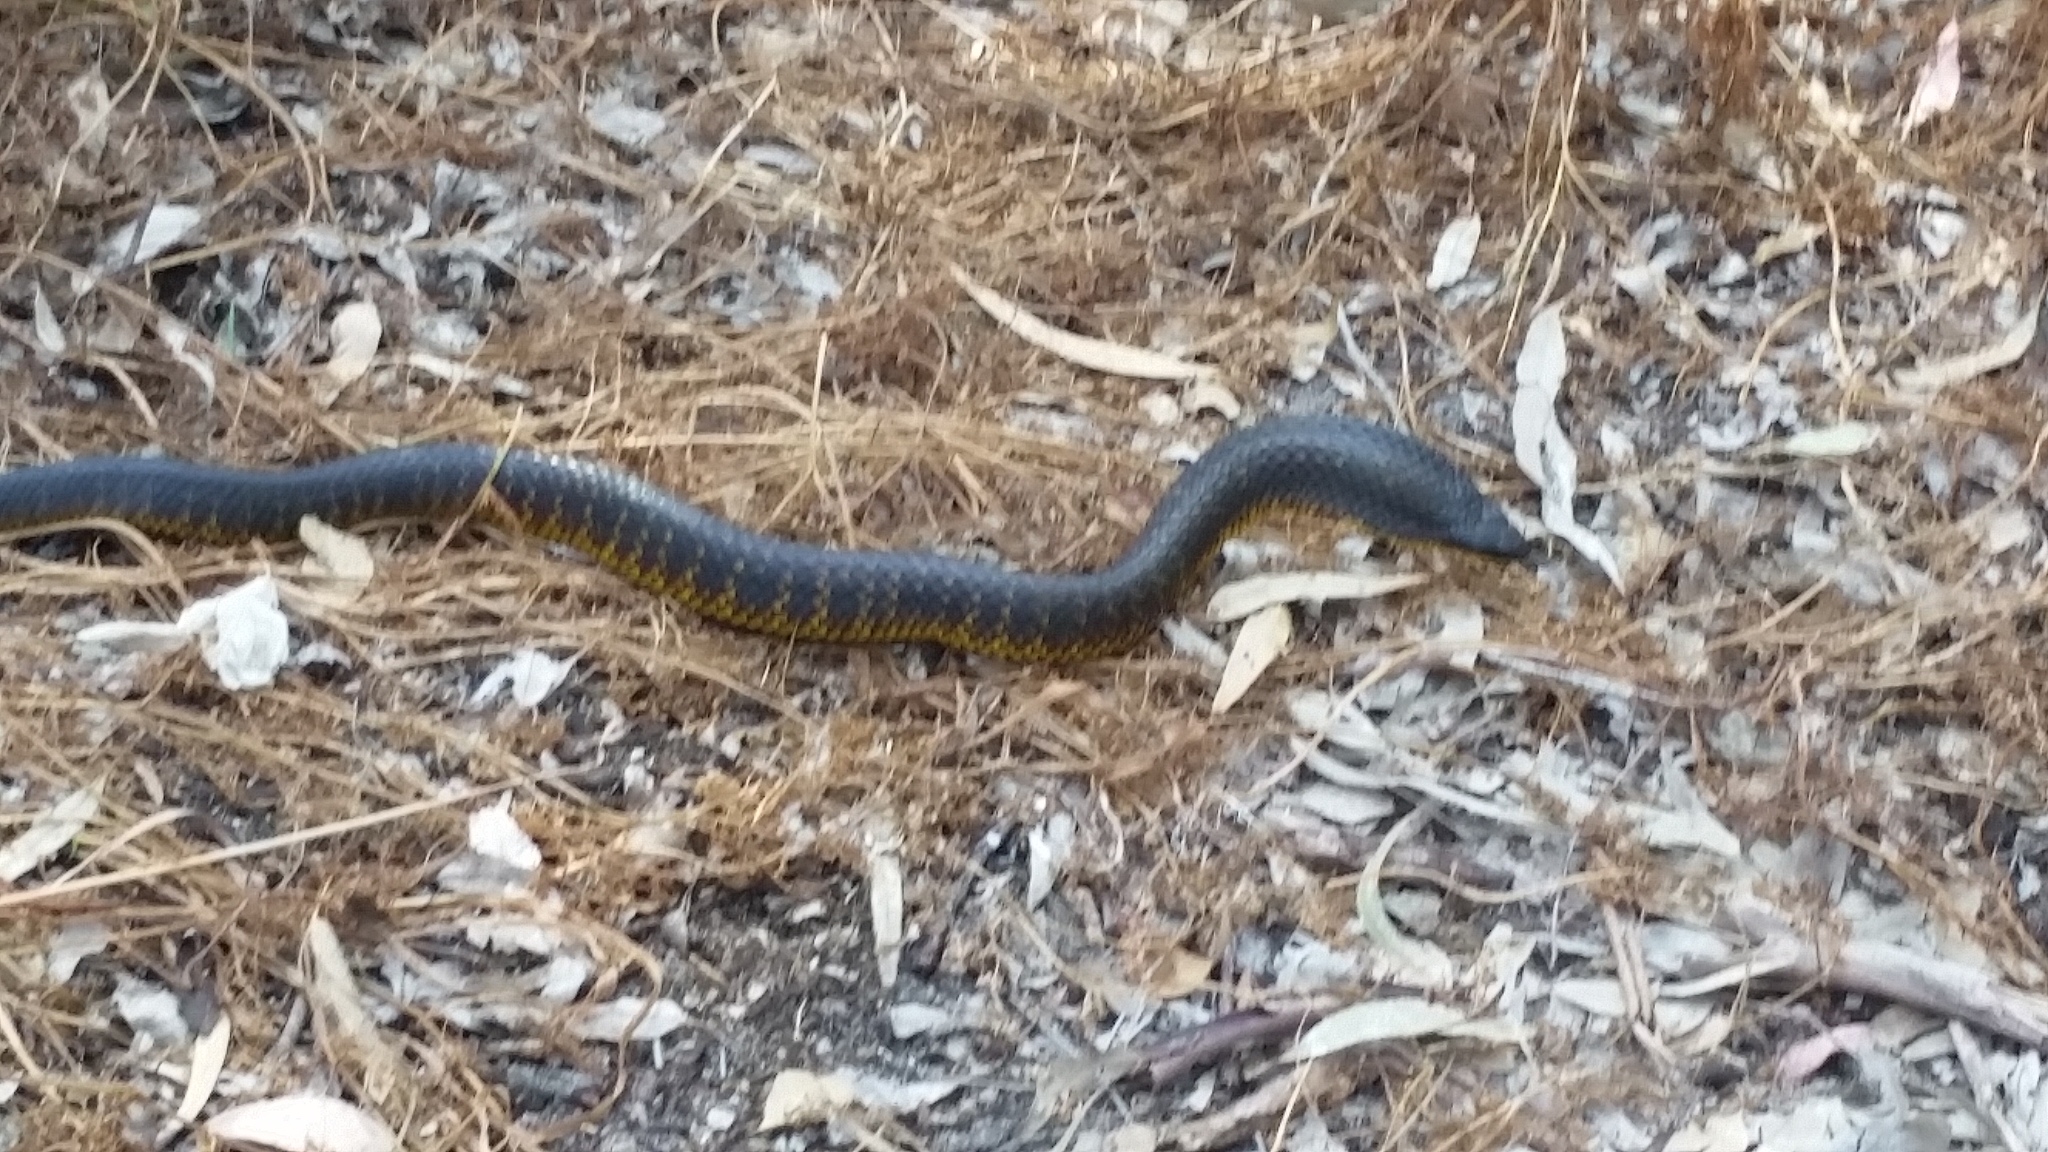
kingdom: Animalia
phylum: Chordata
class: Squamata
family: Elapidae
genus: Notechis
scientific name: Notechis scutatus
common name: Mainland tiger snake
